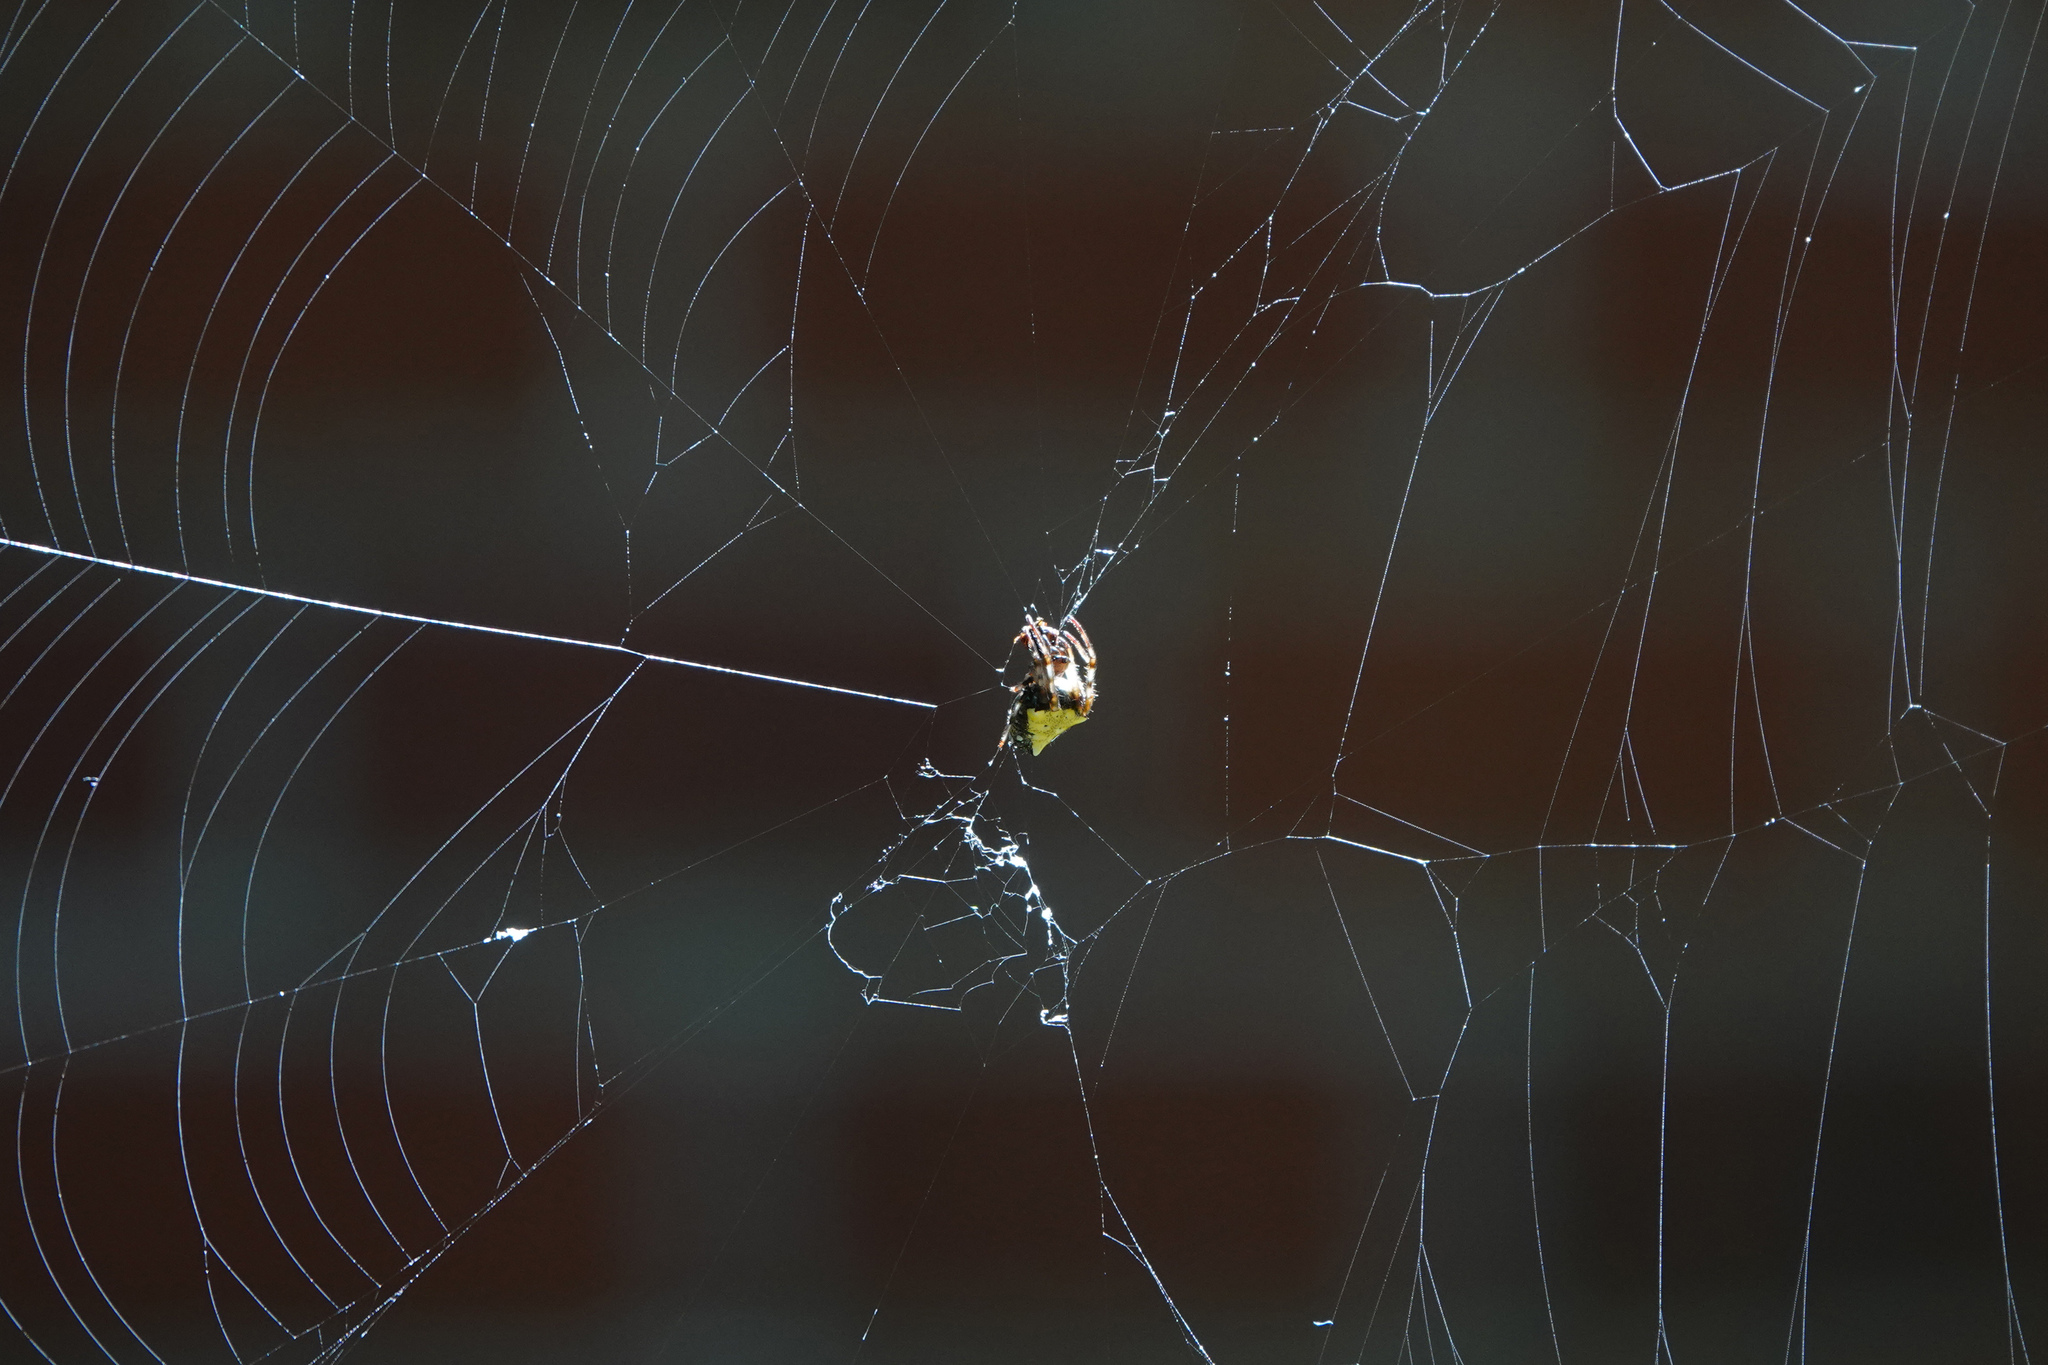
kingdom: Animalia
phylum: Arthropoda
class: Arachnida
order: Araneae
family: Araneidae
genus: Verrucosa
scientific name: Verrucosa arenata
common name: Orb weavers
